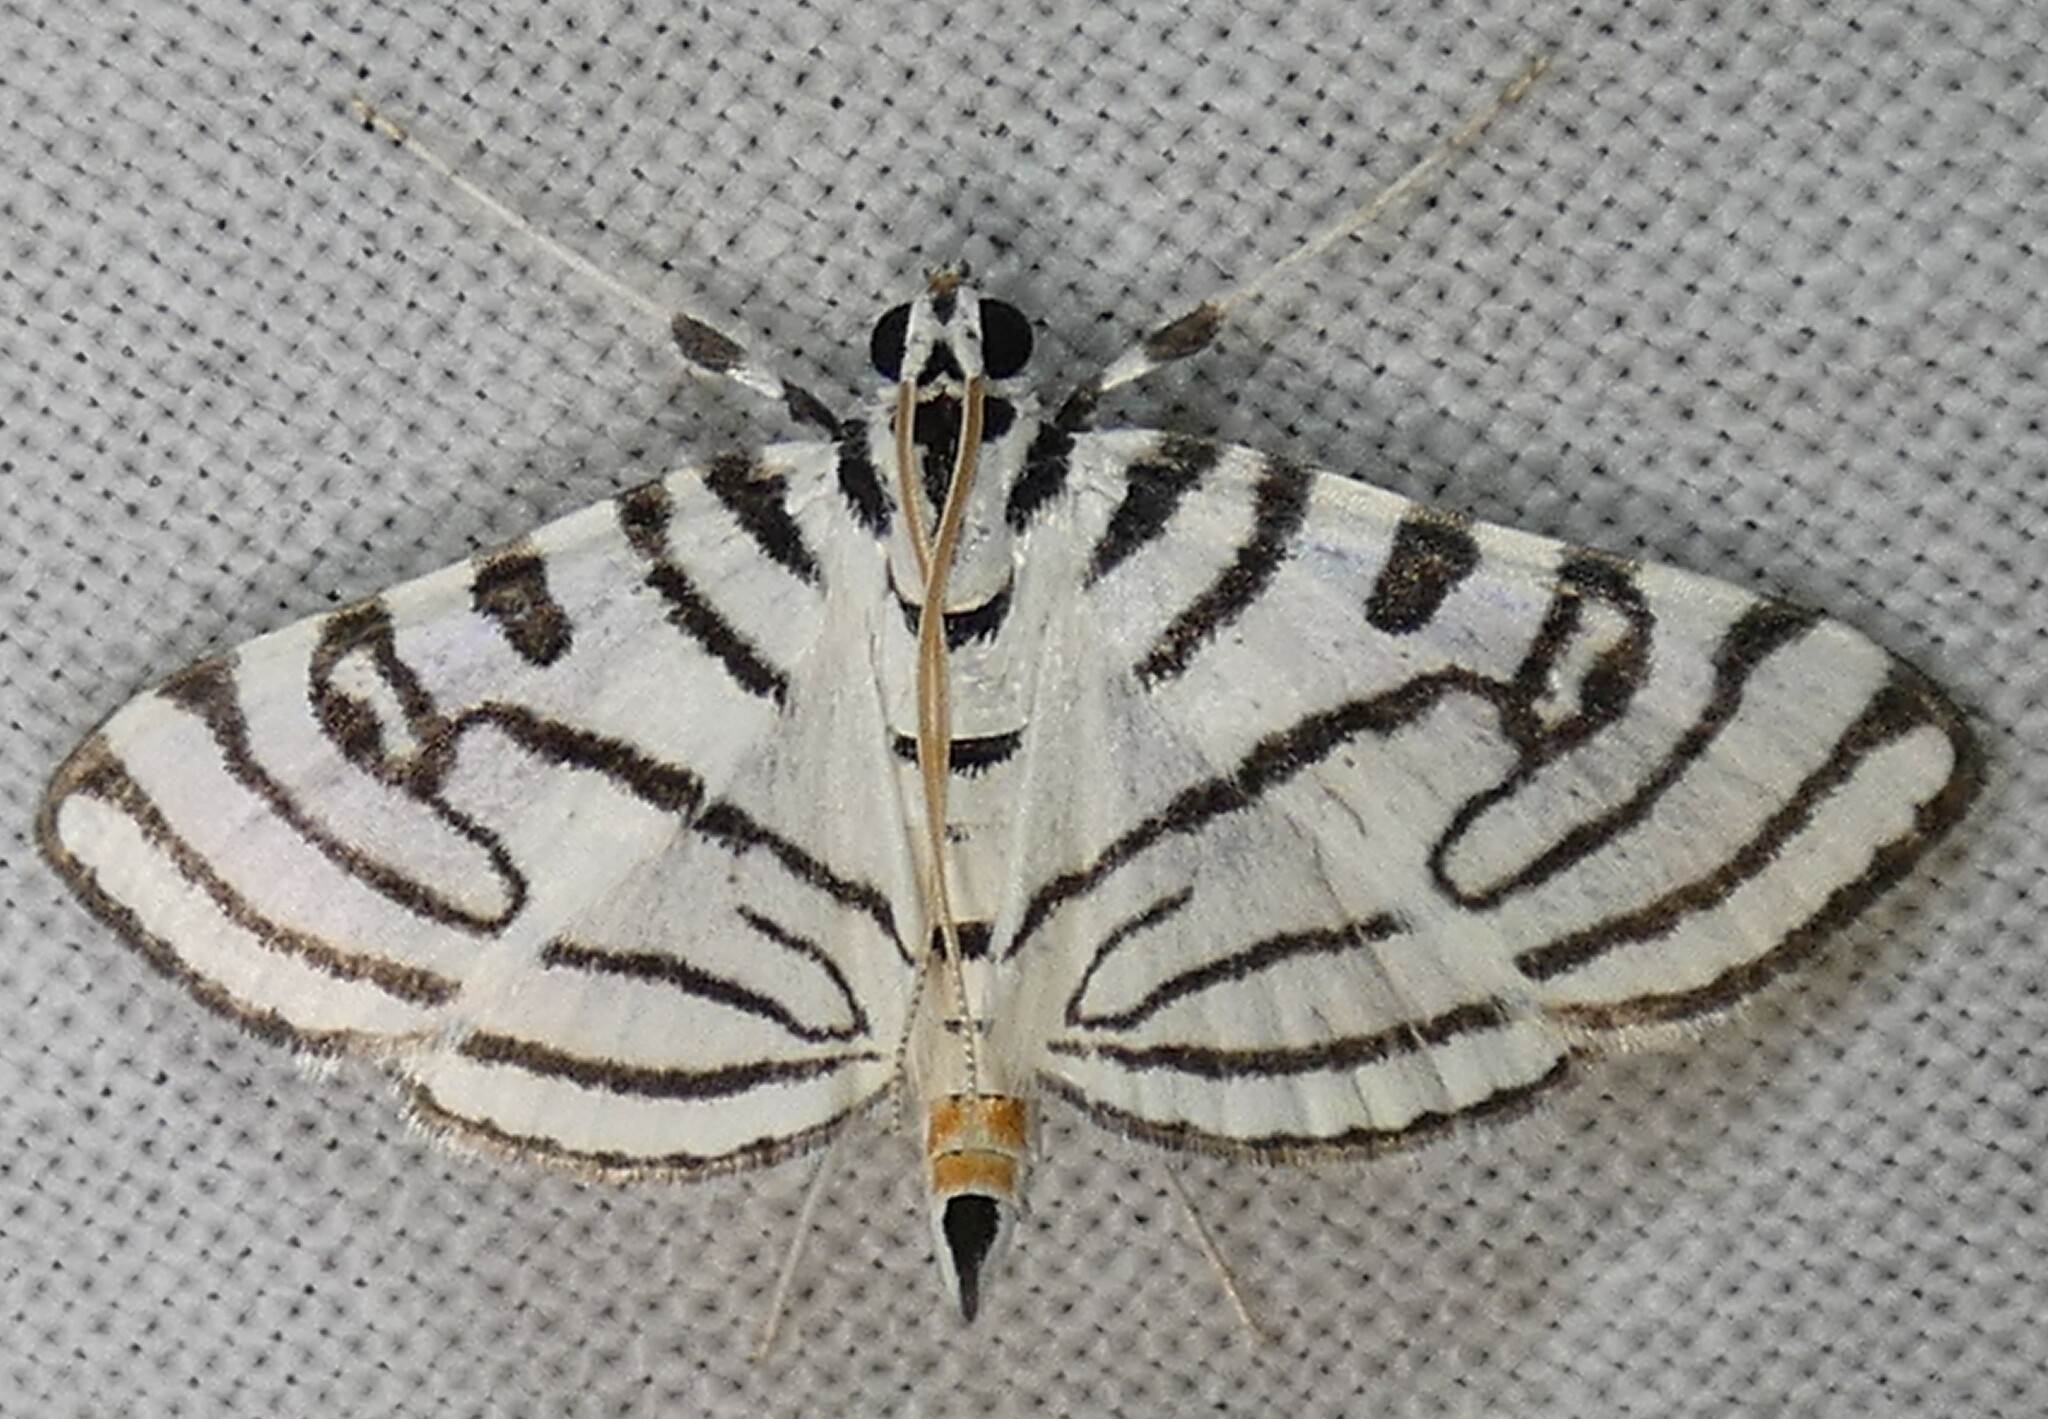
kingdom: Animalia
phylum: Arthropoda
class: Insecta
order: Lepidoptera
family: Crambidae
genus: Conchylodes
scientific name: Conchylodes ovulalis
